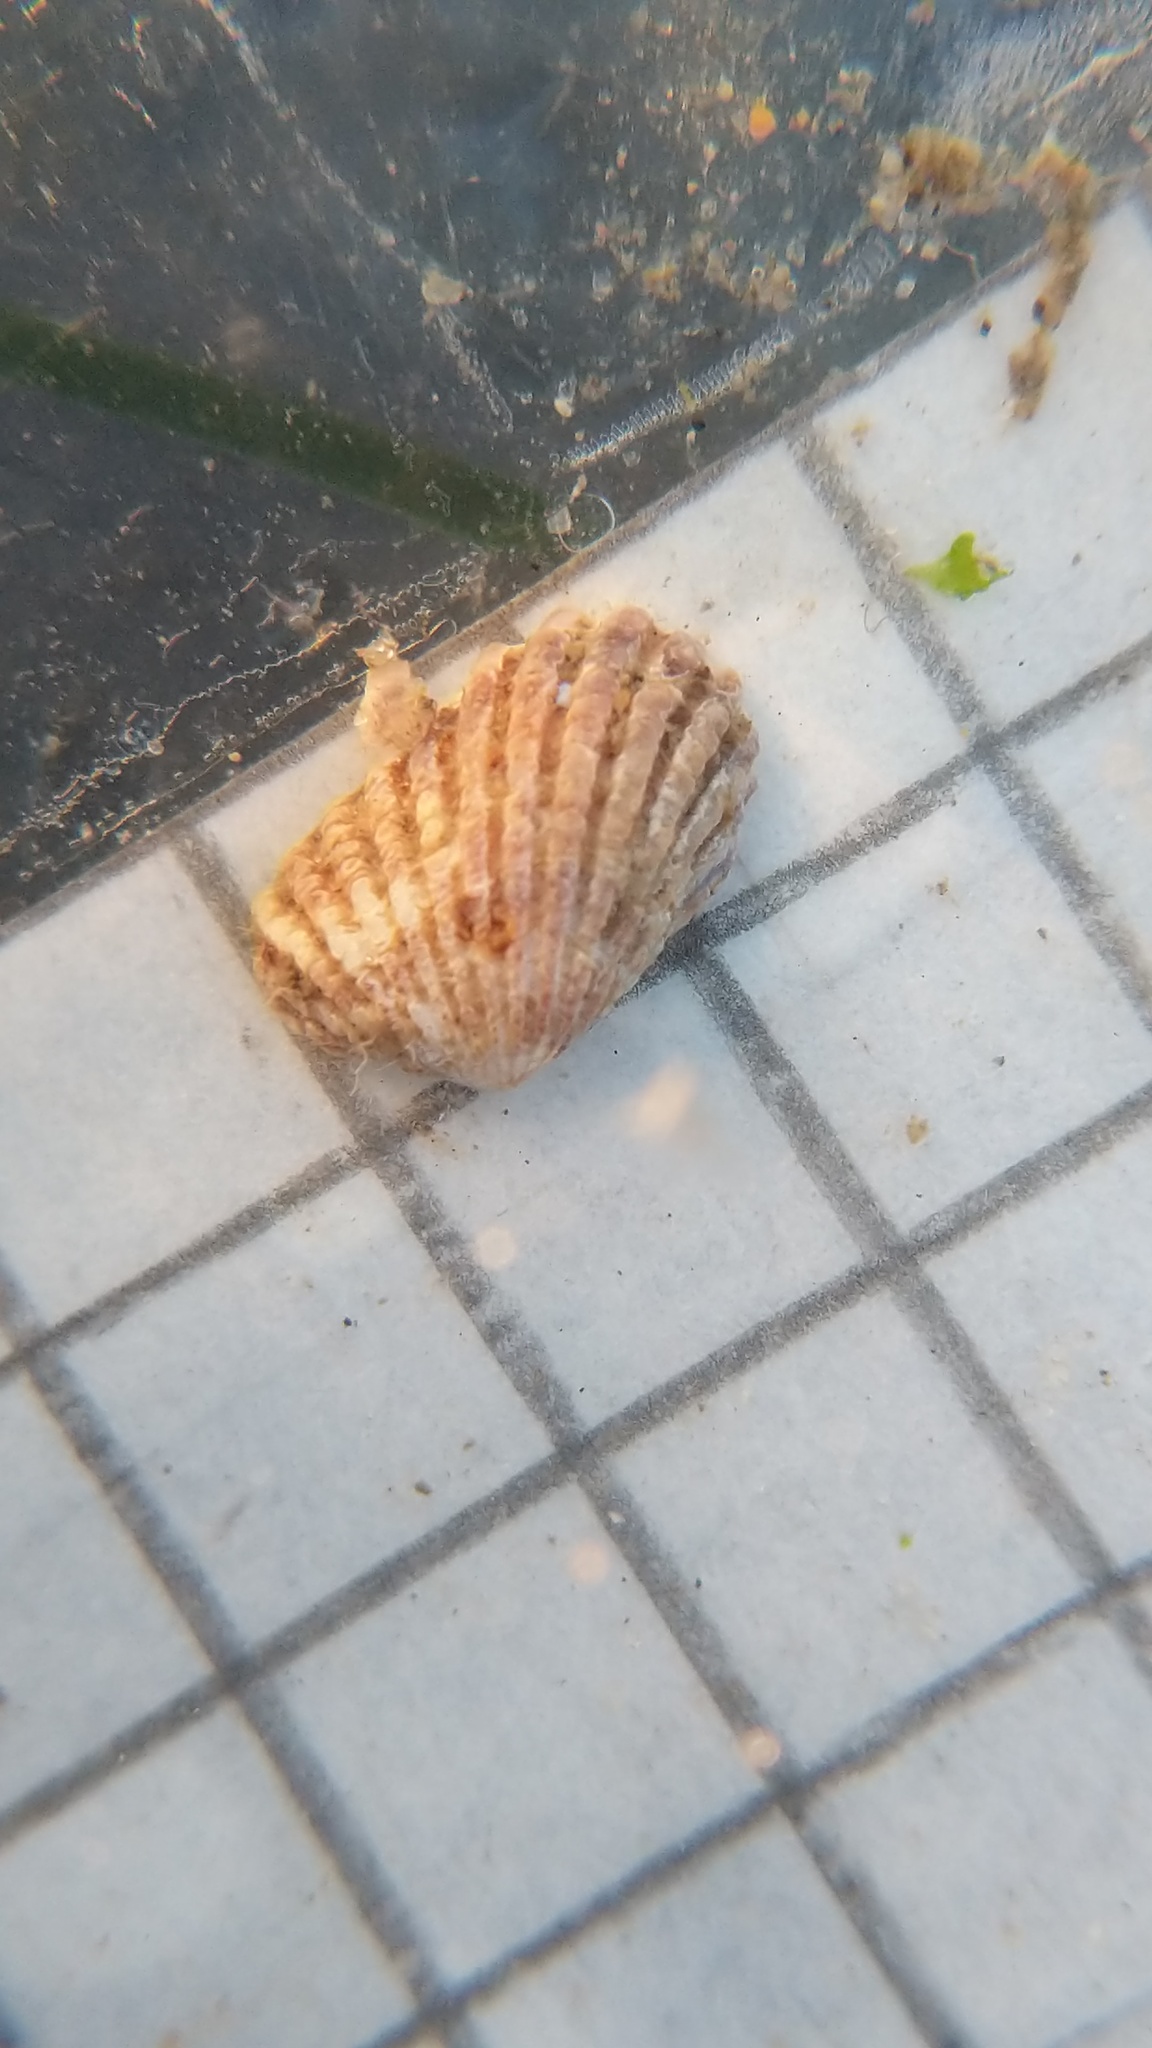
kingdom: Animalia
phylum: Mollusca
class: Bivalvia
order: Carditida
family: Carditidae
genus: Glans
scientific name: Glans carpenteri
